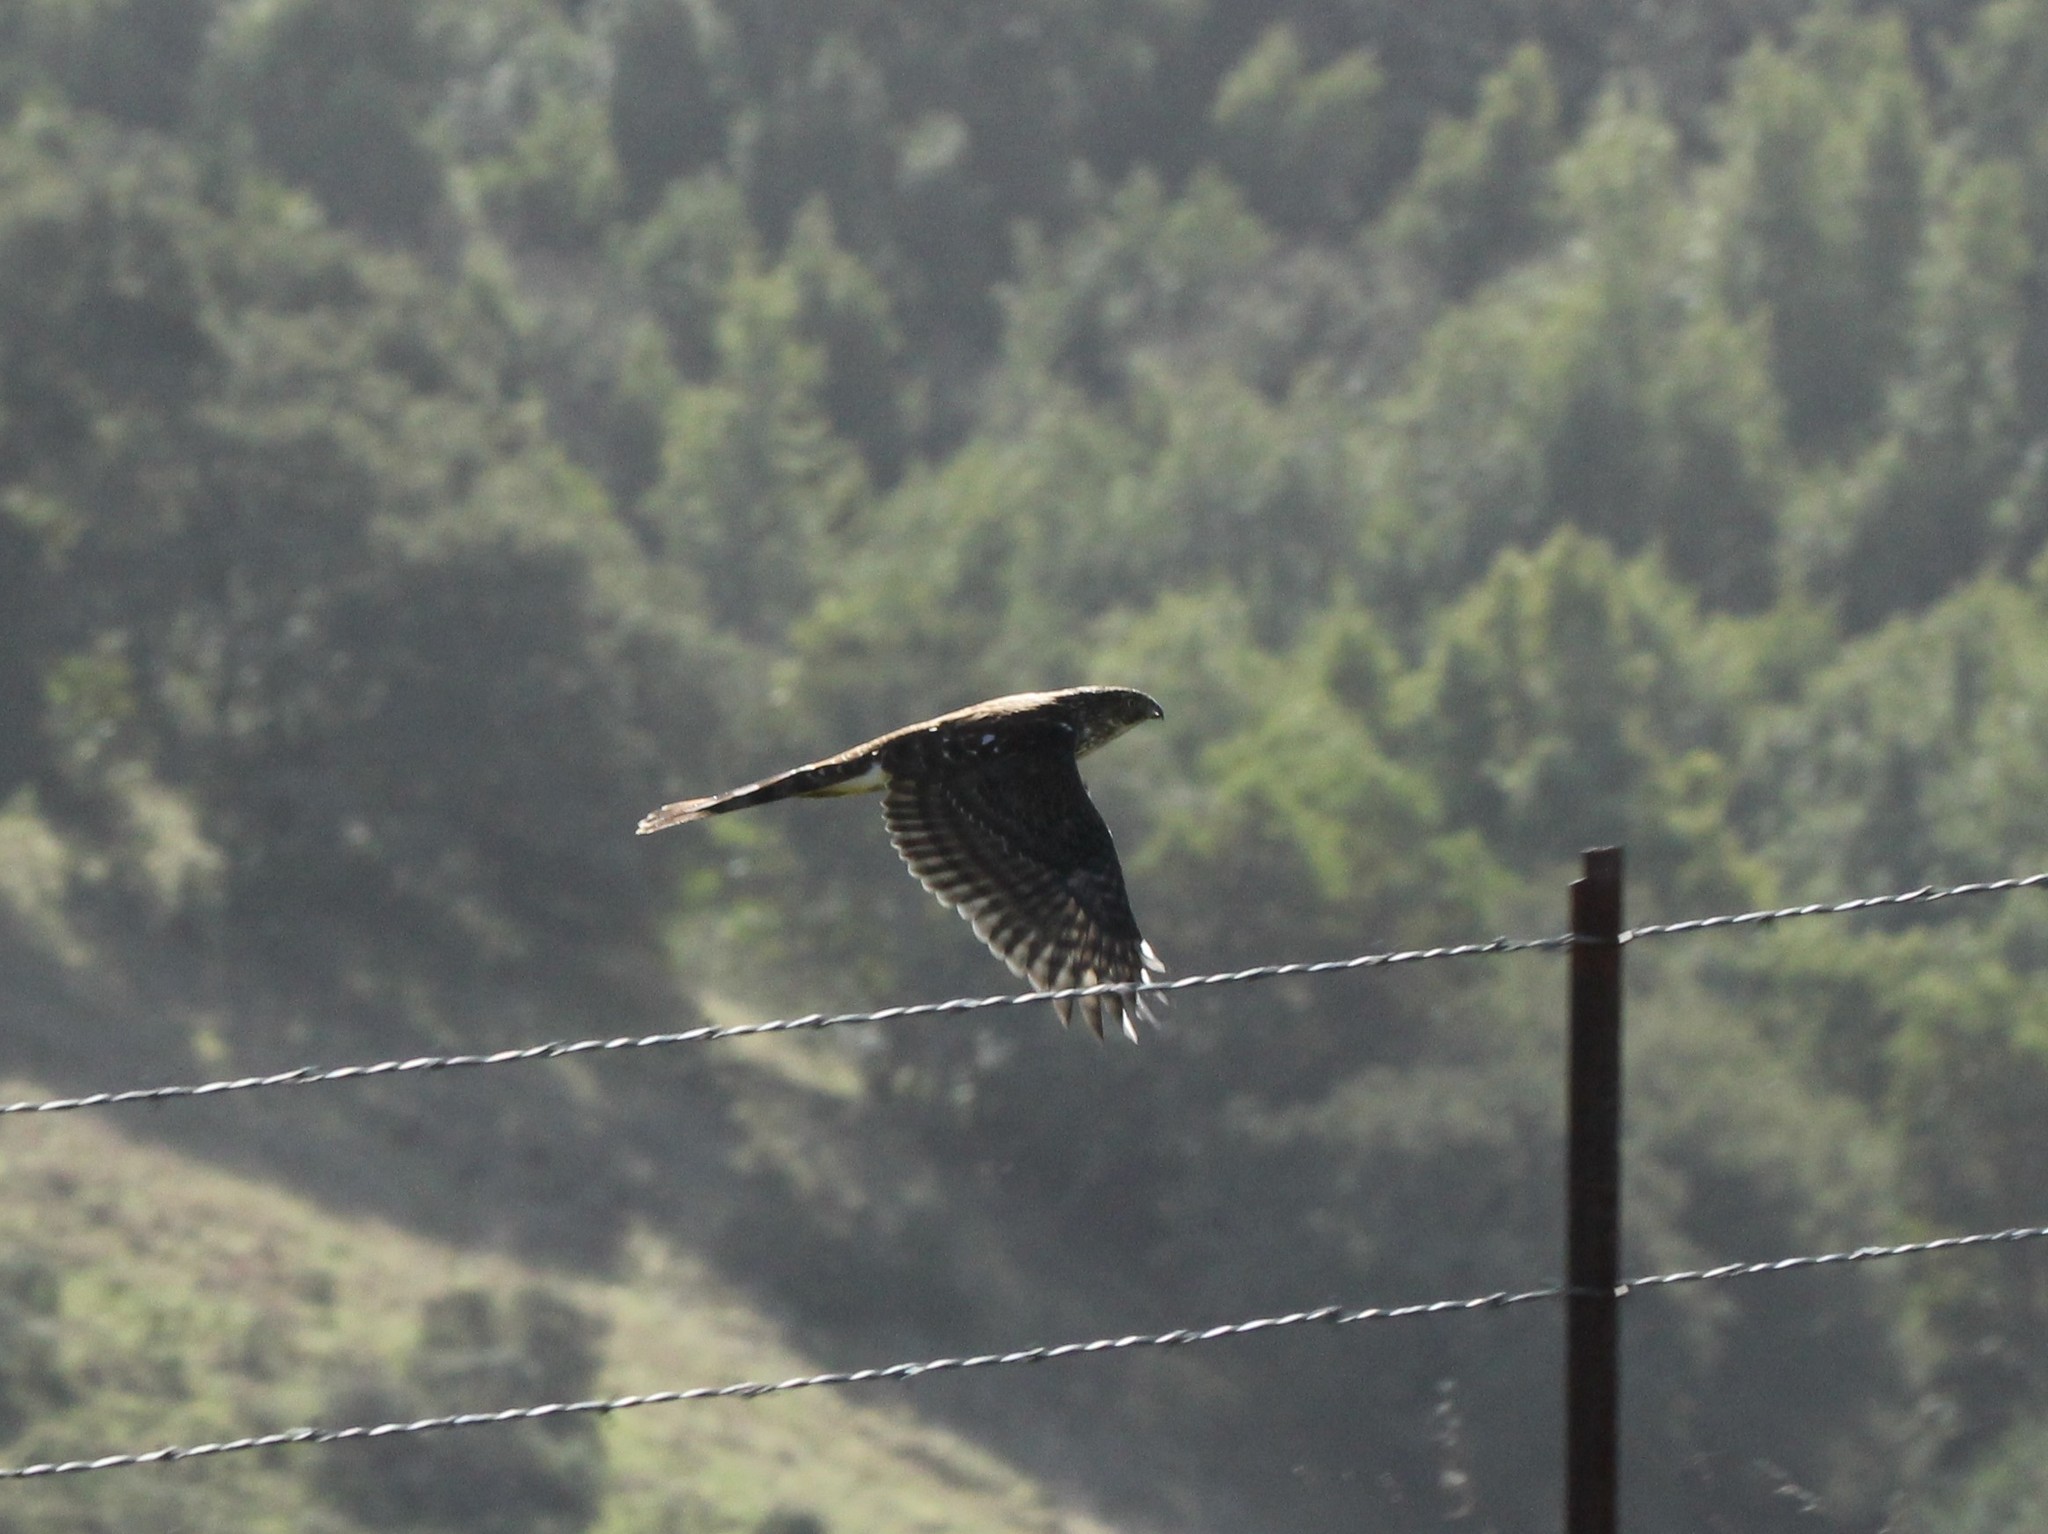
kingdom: Animalia
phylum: Chordata
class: Aves
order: Accipitriformes
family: Accipitridae
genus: Accipiter
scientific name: Accipiter cooperii
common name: Cooper's hawk
